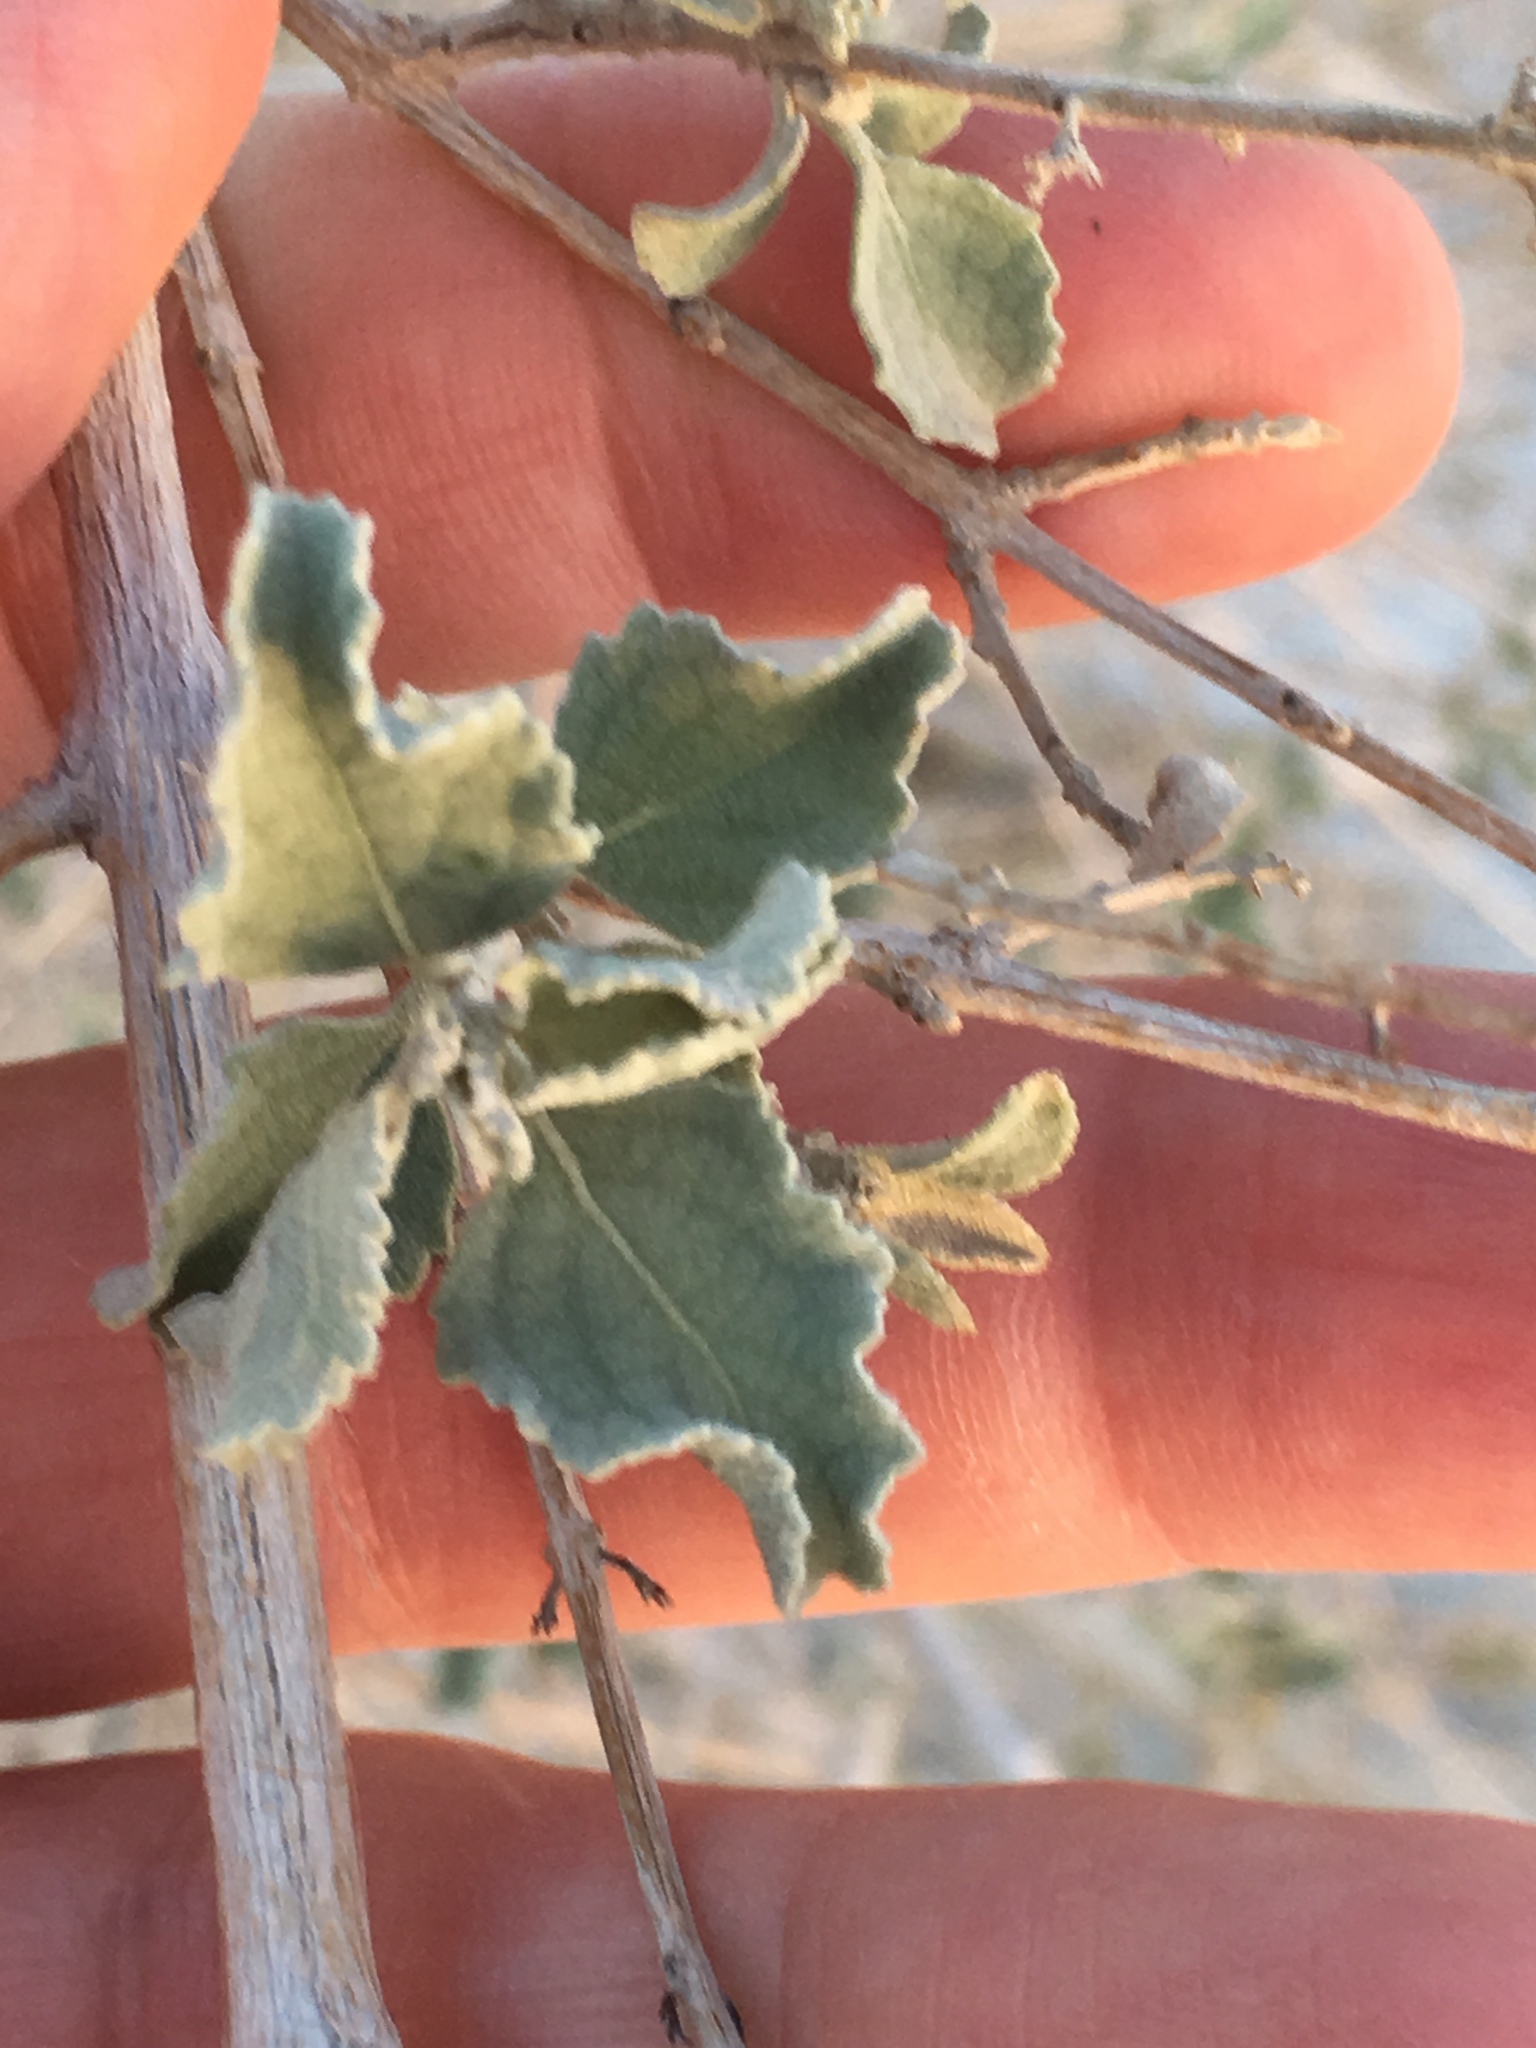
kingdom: Plantae
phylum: Tracheophyta
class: Magnoliopsida
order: Lamiales
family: Lamiaceae
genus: Condea
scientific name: Condea emoryi
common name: Chia
